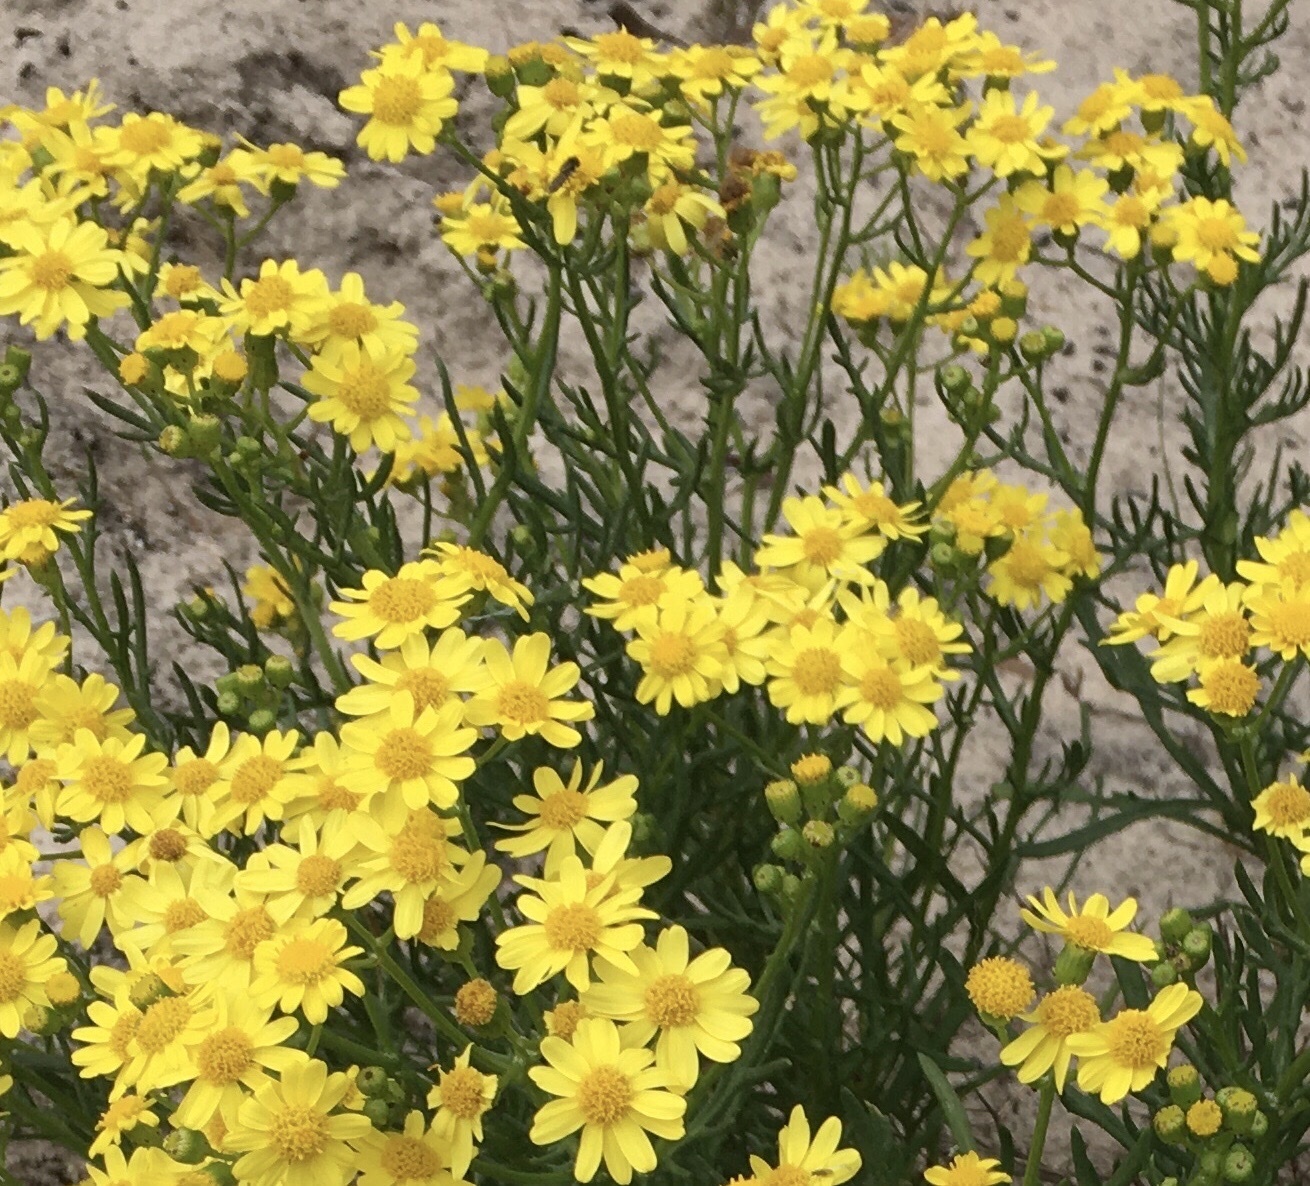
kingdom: Plantae
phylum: Tracheophyta
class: Magnoliopsida
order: Asterales
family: Asteraceae
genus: Senecio
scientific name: Senecio pinnatifolius
